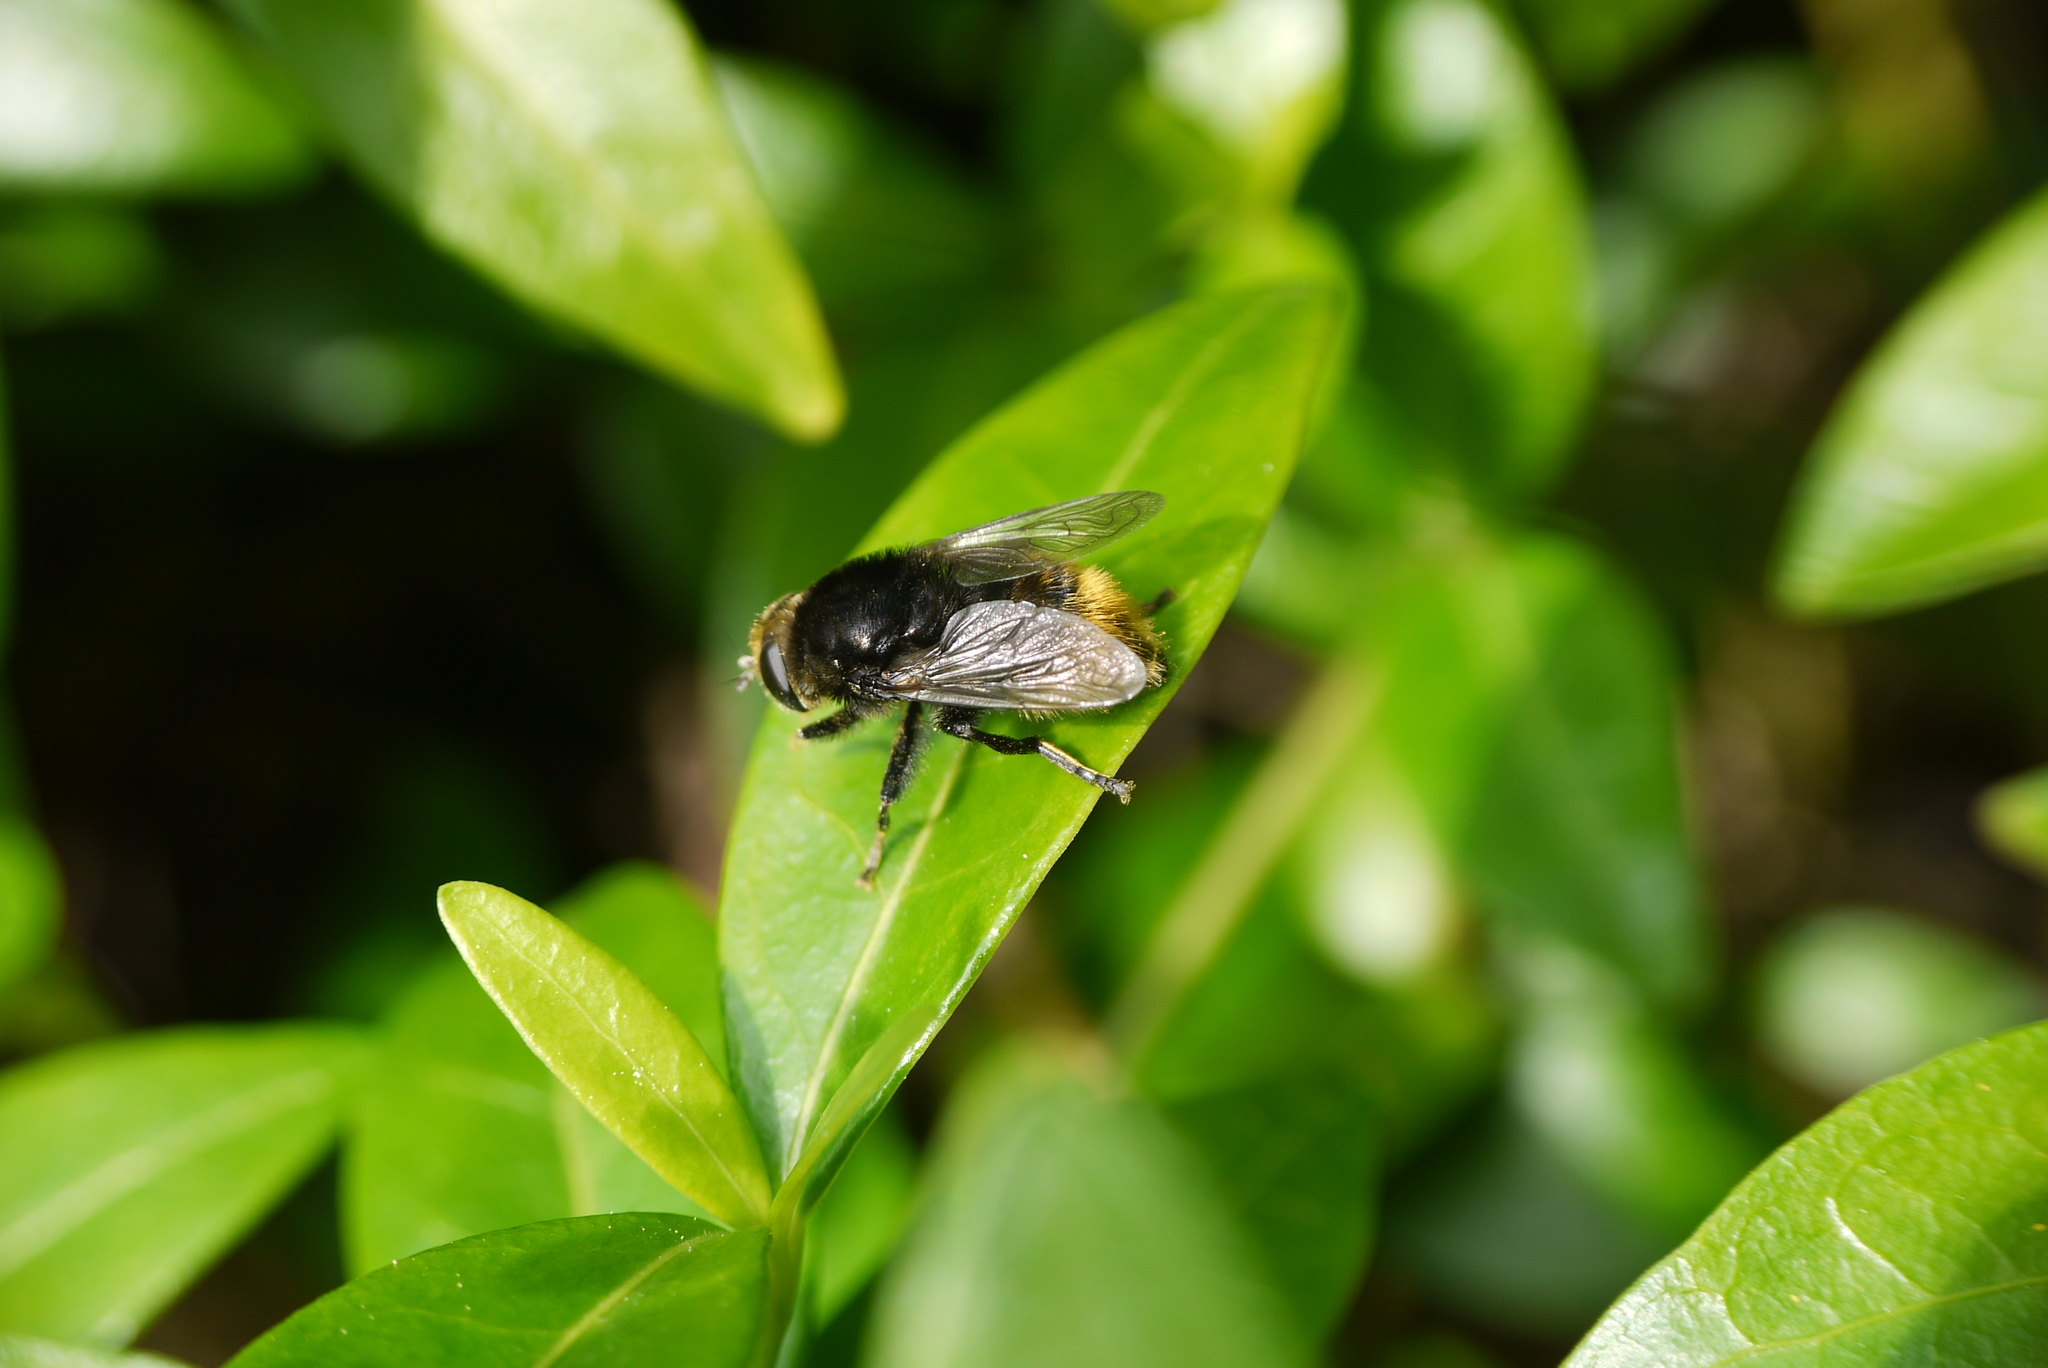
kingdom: Animalia
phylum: Arthropoda
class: Insecta
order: Diptera
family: Syrphidae
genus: Merodon
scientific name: Merodon equestris
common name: Greater bulb-fly
